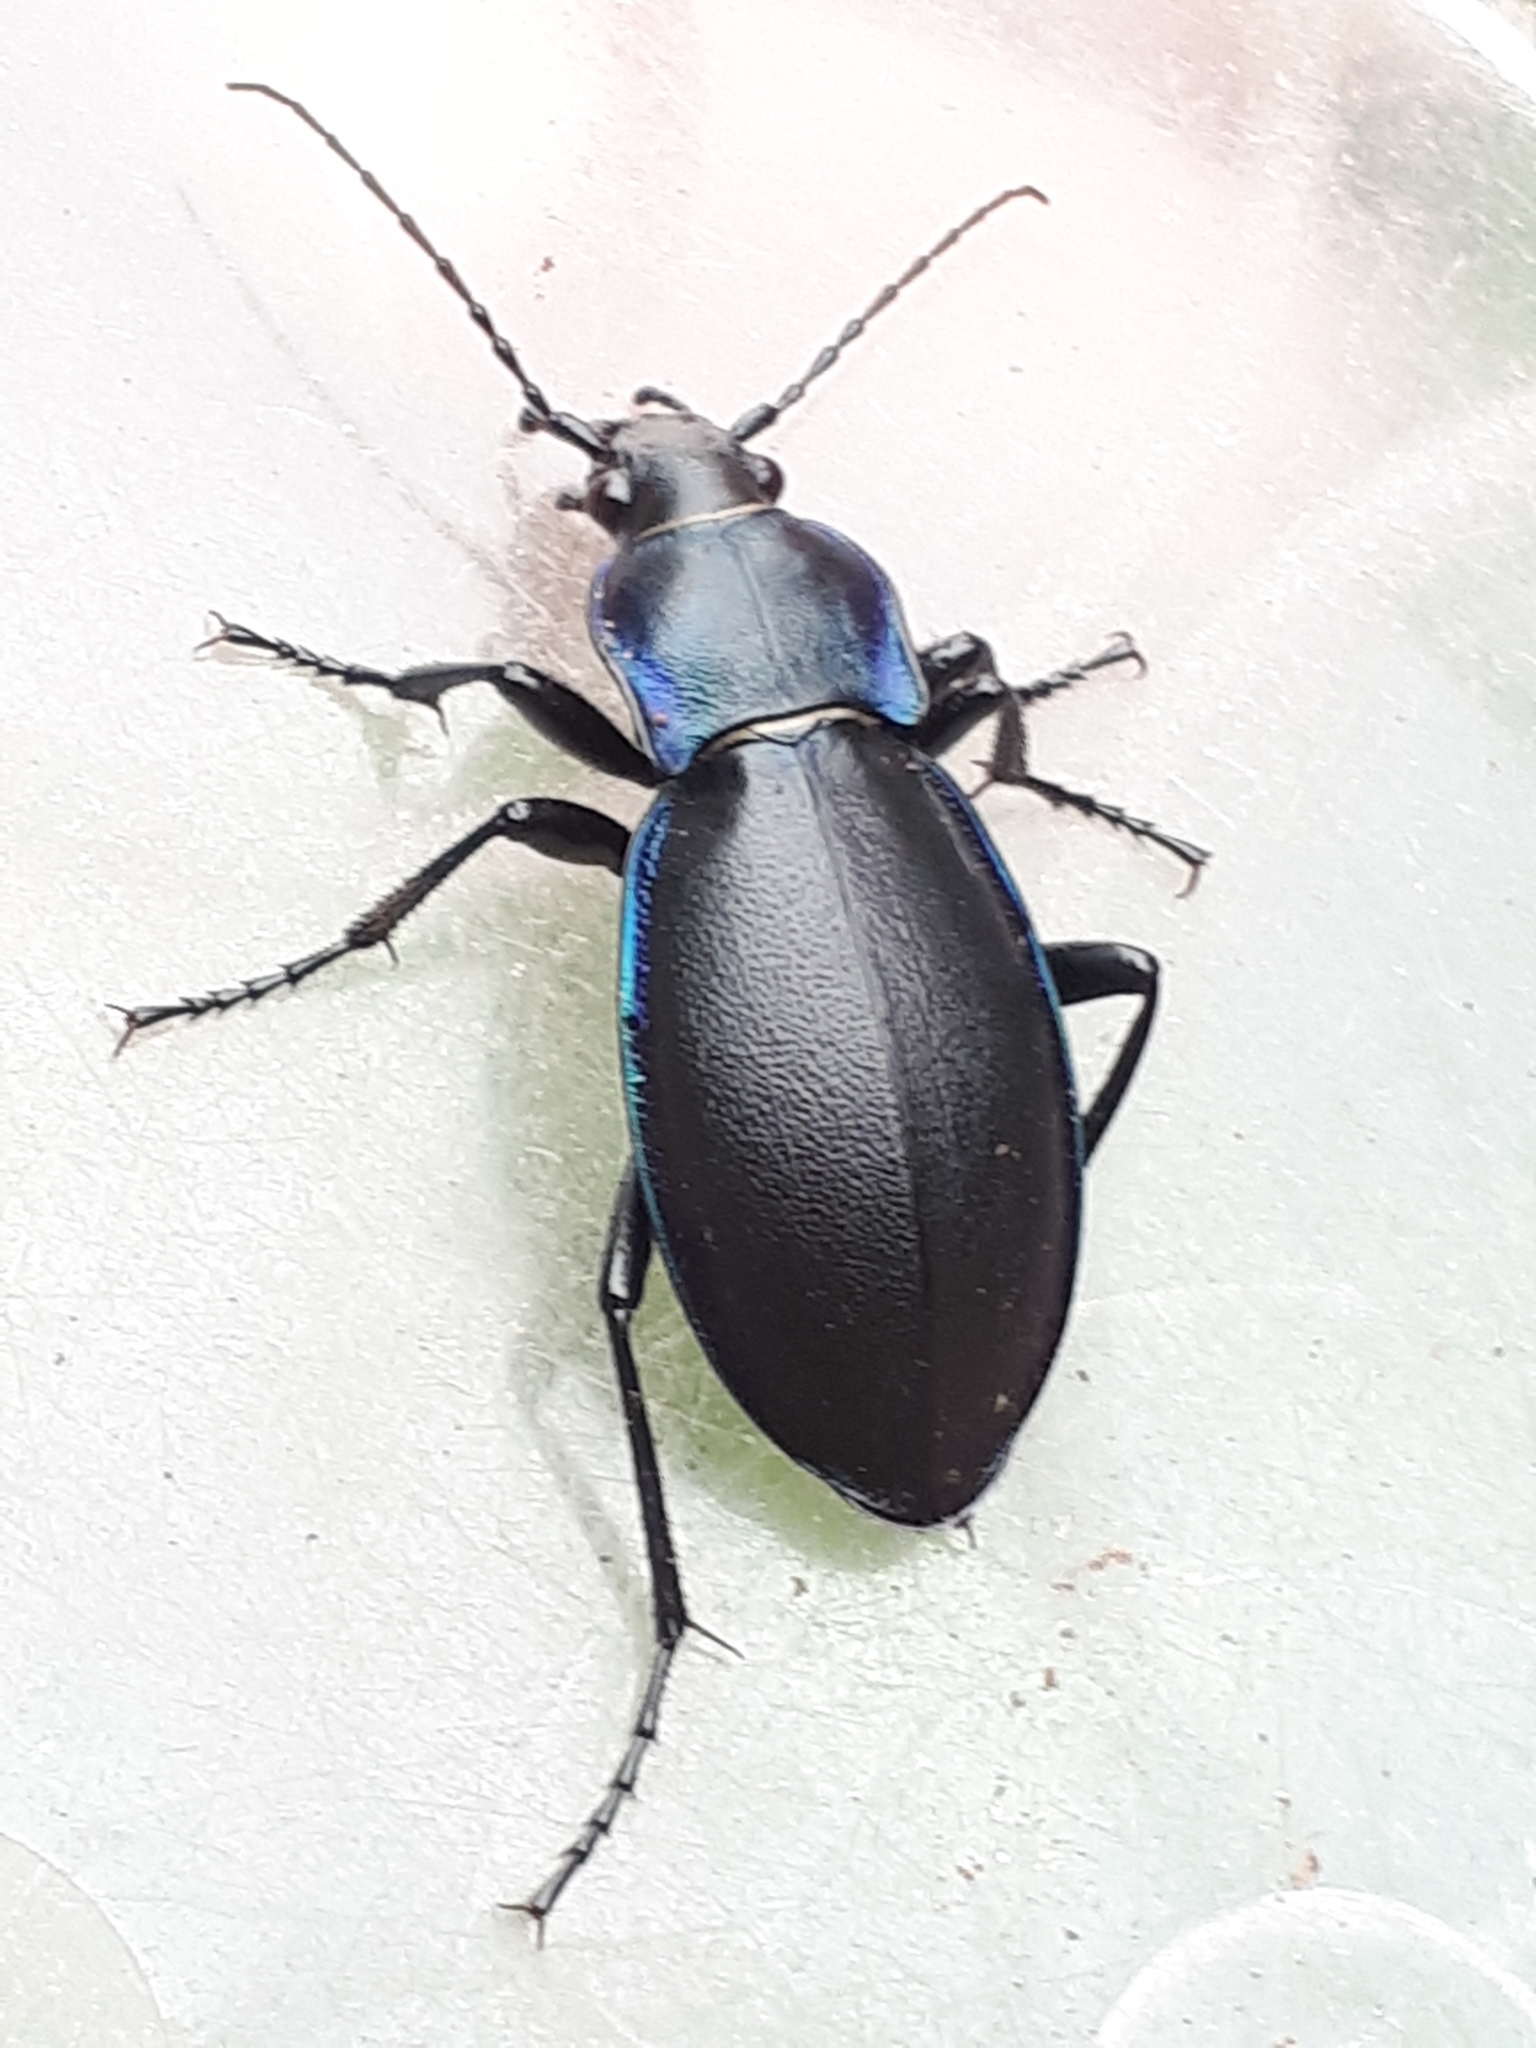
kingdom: Animalia
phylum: Arthropoda
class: Insecta
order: Coleoptera
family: Carabidae
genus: Carabus
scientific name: Carabus violaceus
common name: Violet ground beetle
